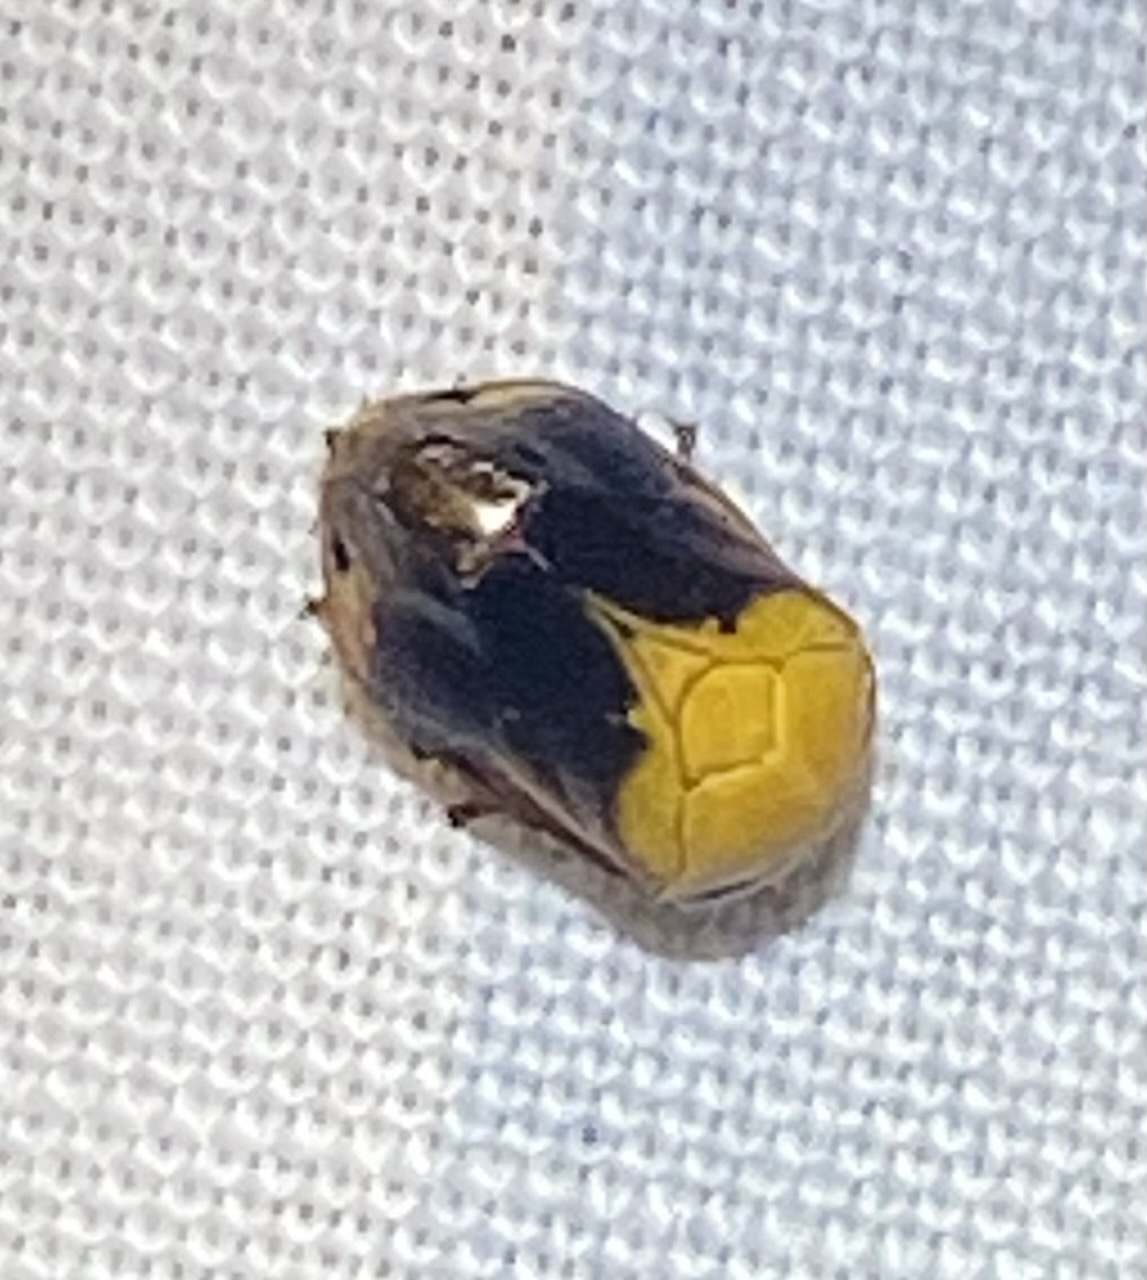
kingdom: Animalia
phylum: Arthropoda
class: Insecta
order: Hemiptera
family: Clastopteridae
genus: Clastoptera
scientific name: Clastoptera achatina
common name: Pecan spittlebug
